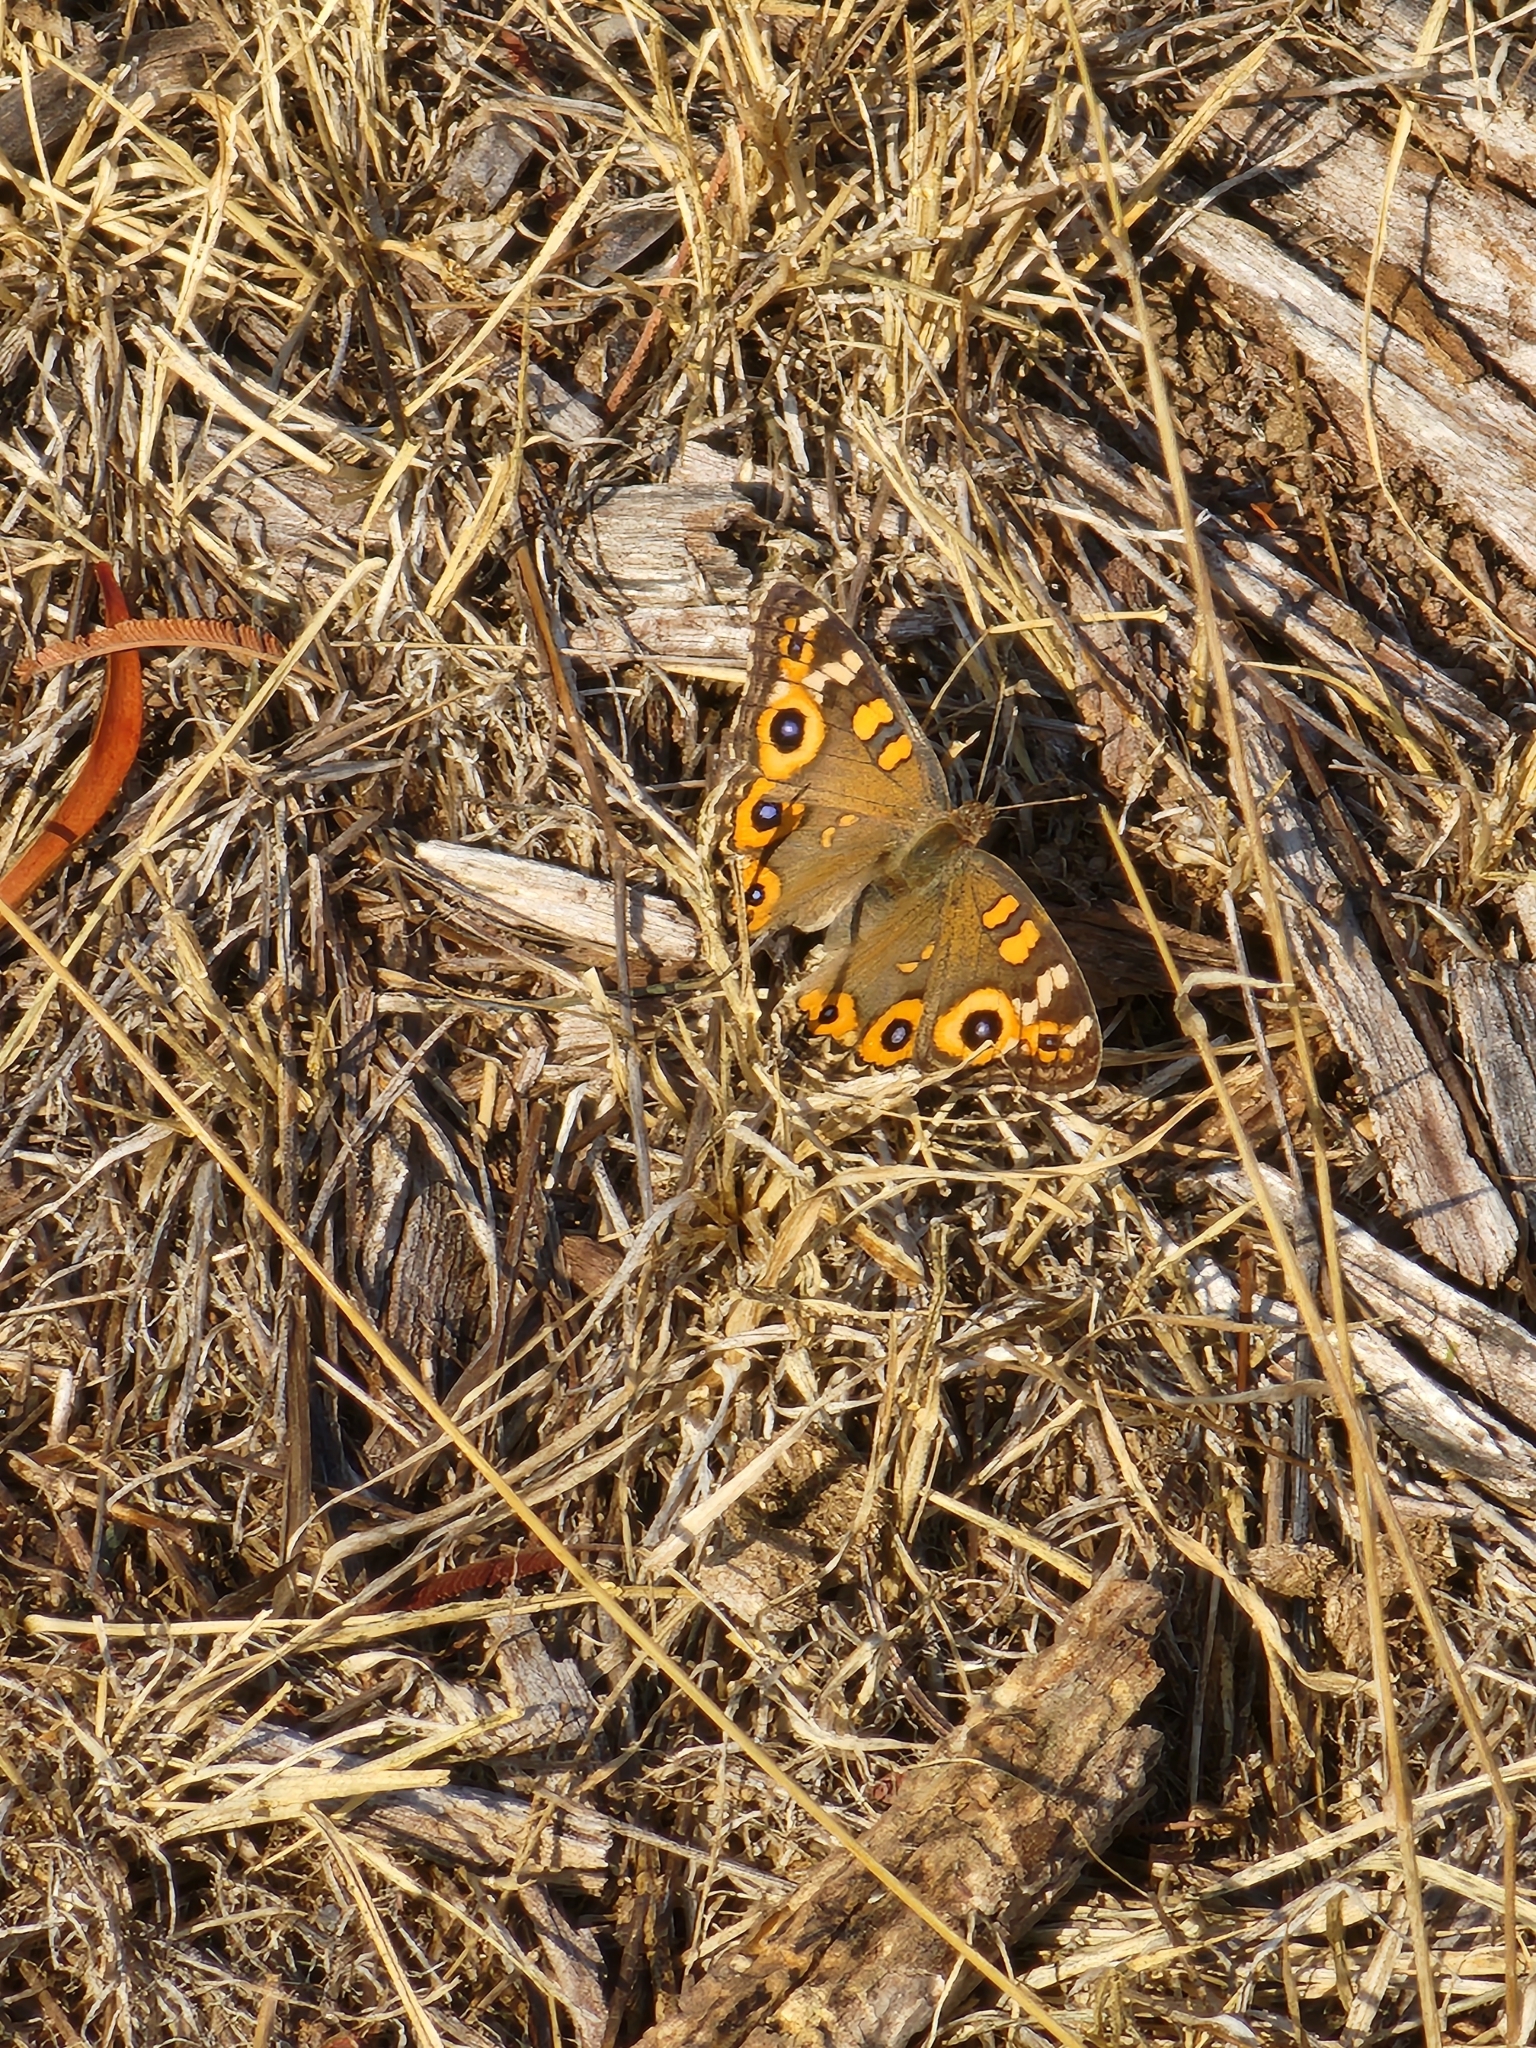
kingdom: Animalia
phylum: Arthropoda
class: Insecta
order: Lepidoptera
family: Nymphalidae
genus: Junonia
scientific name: Junonia villida
